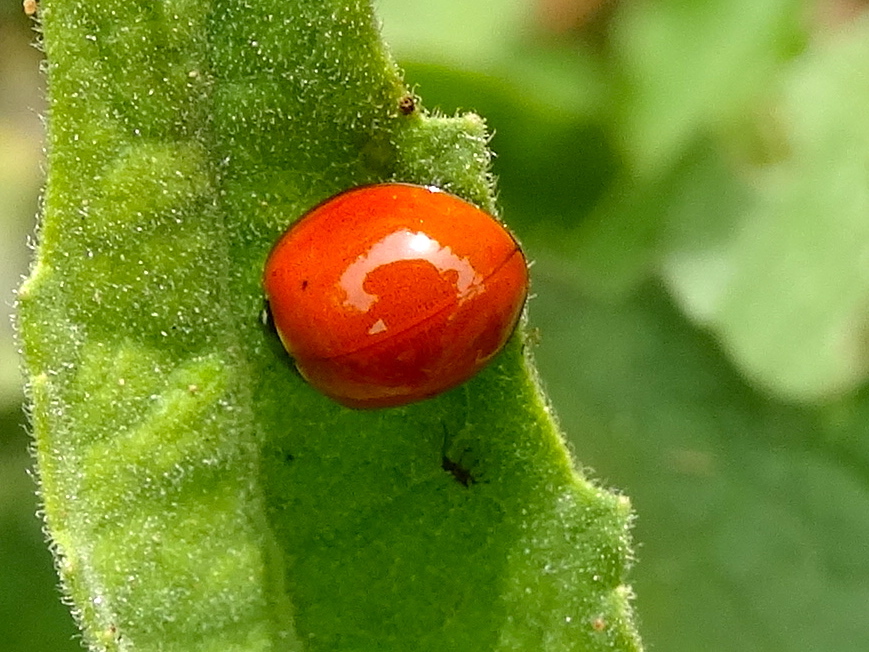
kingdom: Animalia
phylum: Arthropoda
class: Insecta
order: Coleoptera
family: Coccinellidae
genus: Cycloneda
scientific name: Cycloneda sanguinea
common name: Ladybird beetle
